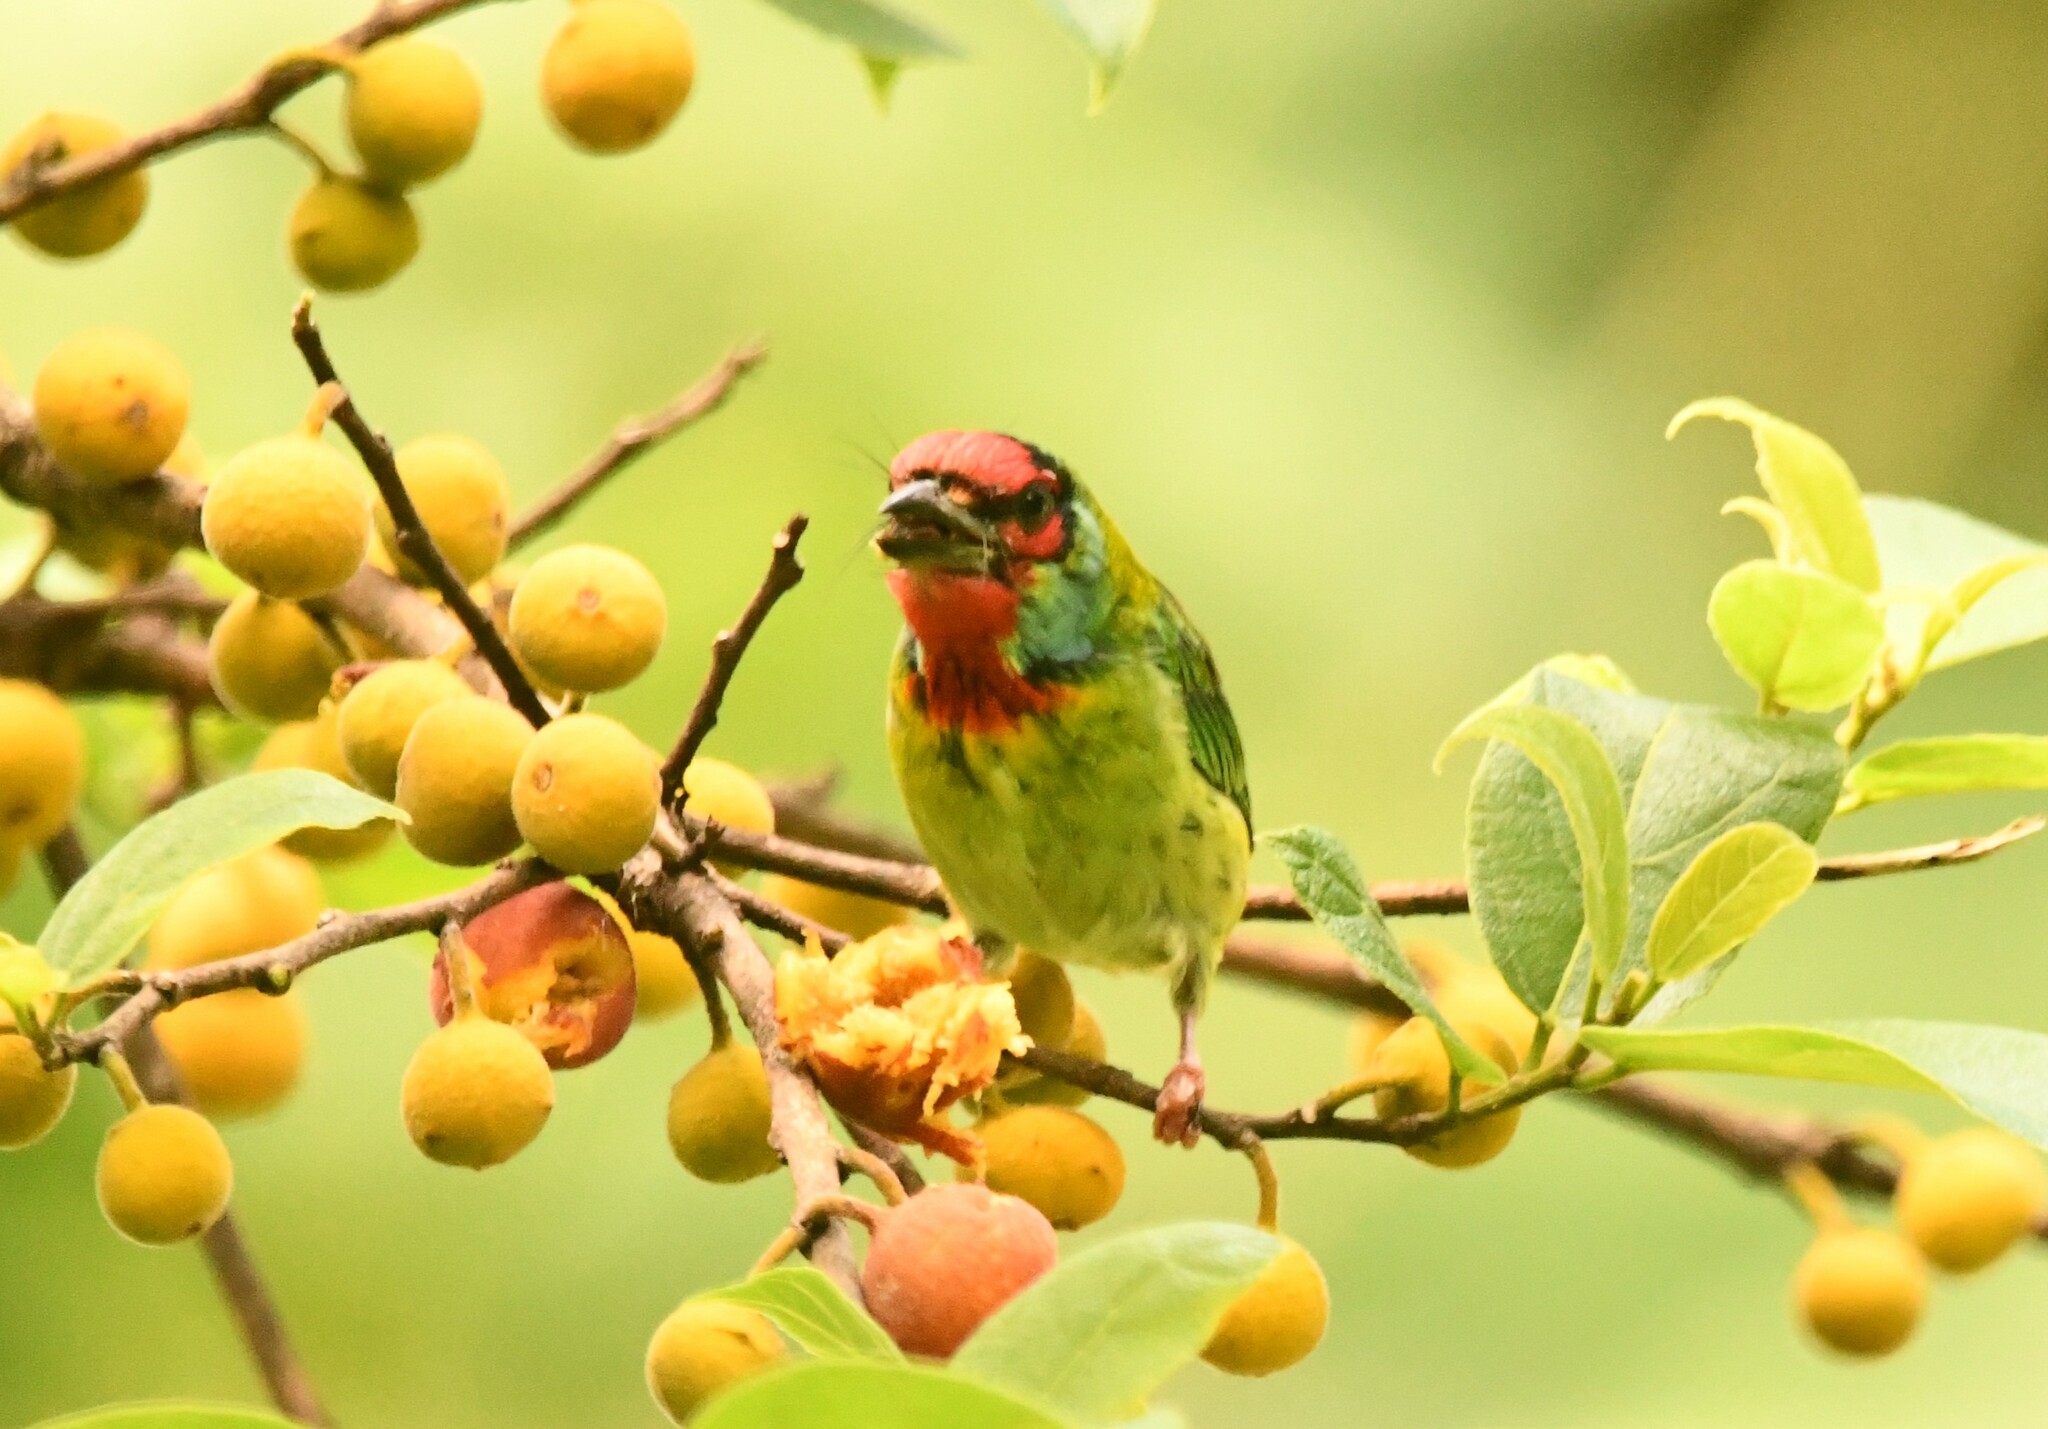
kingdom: Animalia
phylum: Chordata
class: Aves
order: Piciformes
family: Megalaimidae
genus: Psilopogon
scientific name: Psilopogon malabaricus
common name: Malabar barbet
